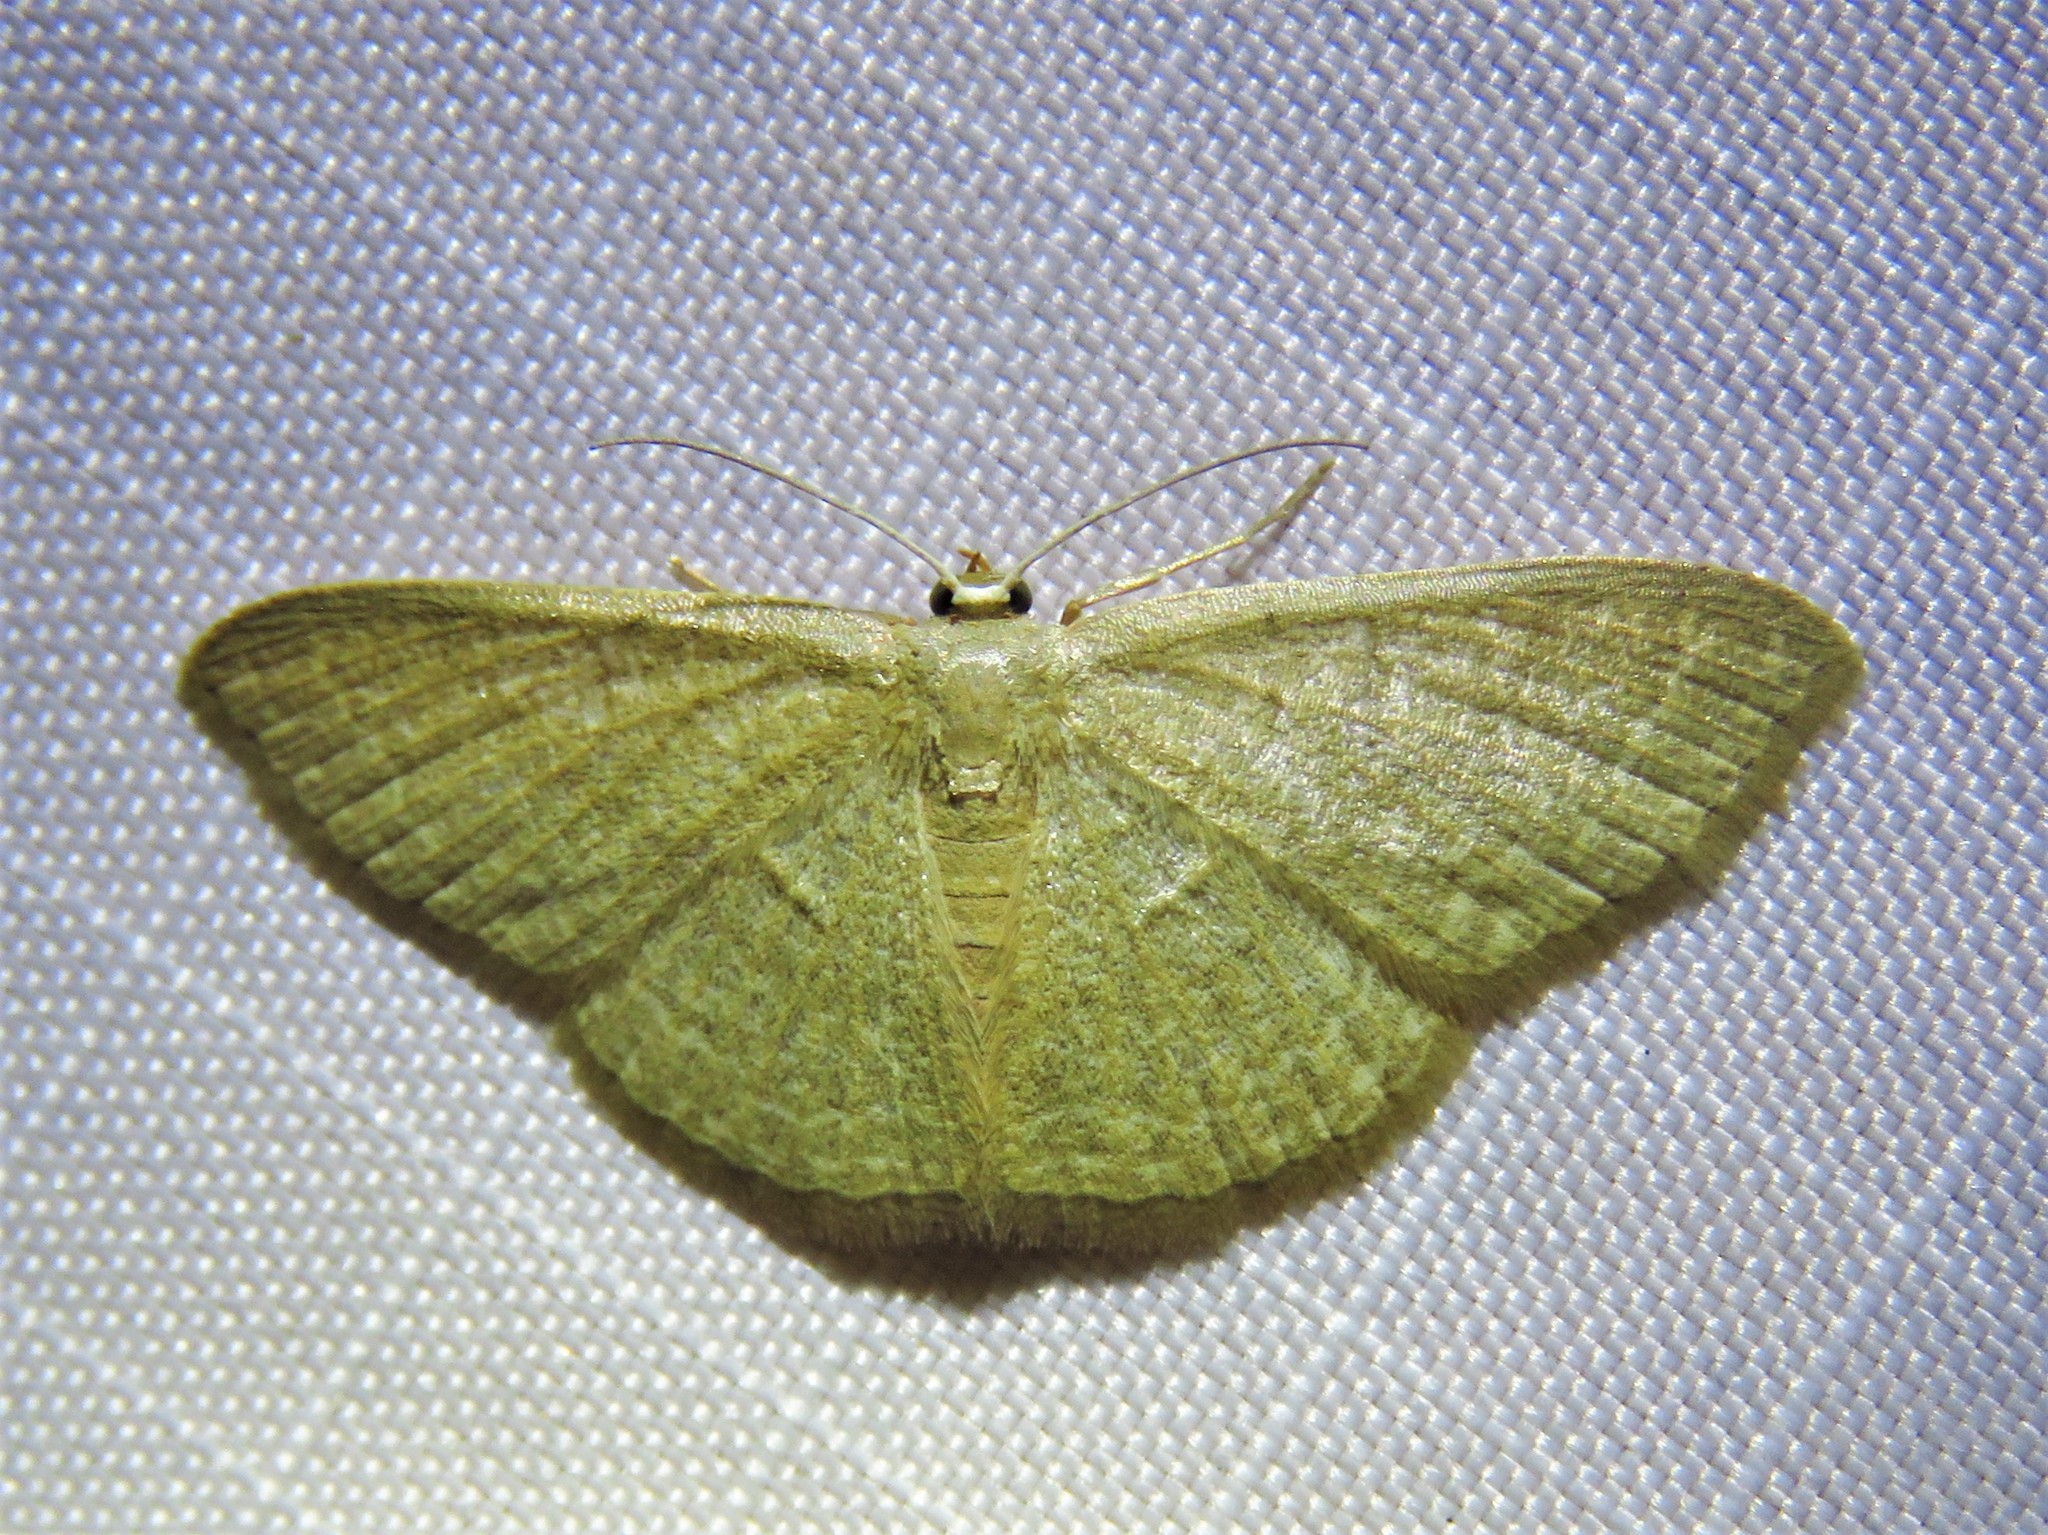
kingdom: Animalia
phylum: Arthropoda
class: Insecta
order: Lepidoptera
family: Geometridae
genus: Pleuroprucha
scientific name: Pleuroprucha insulsaria
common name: Common tan wave
